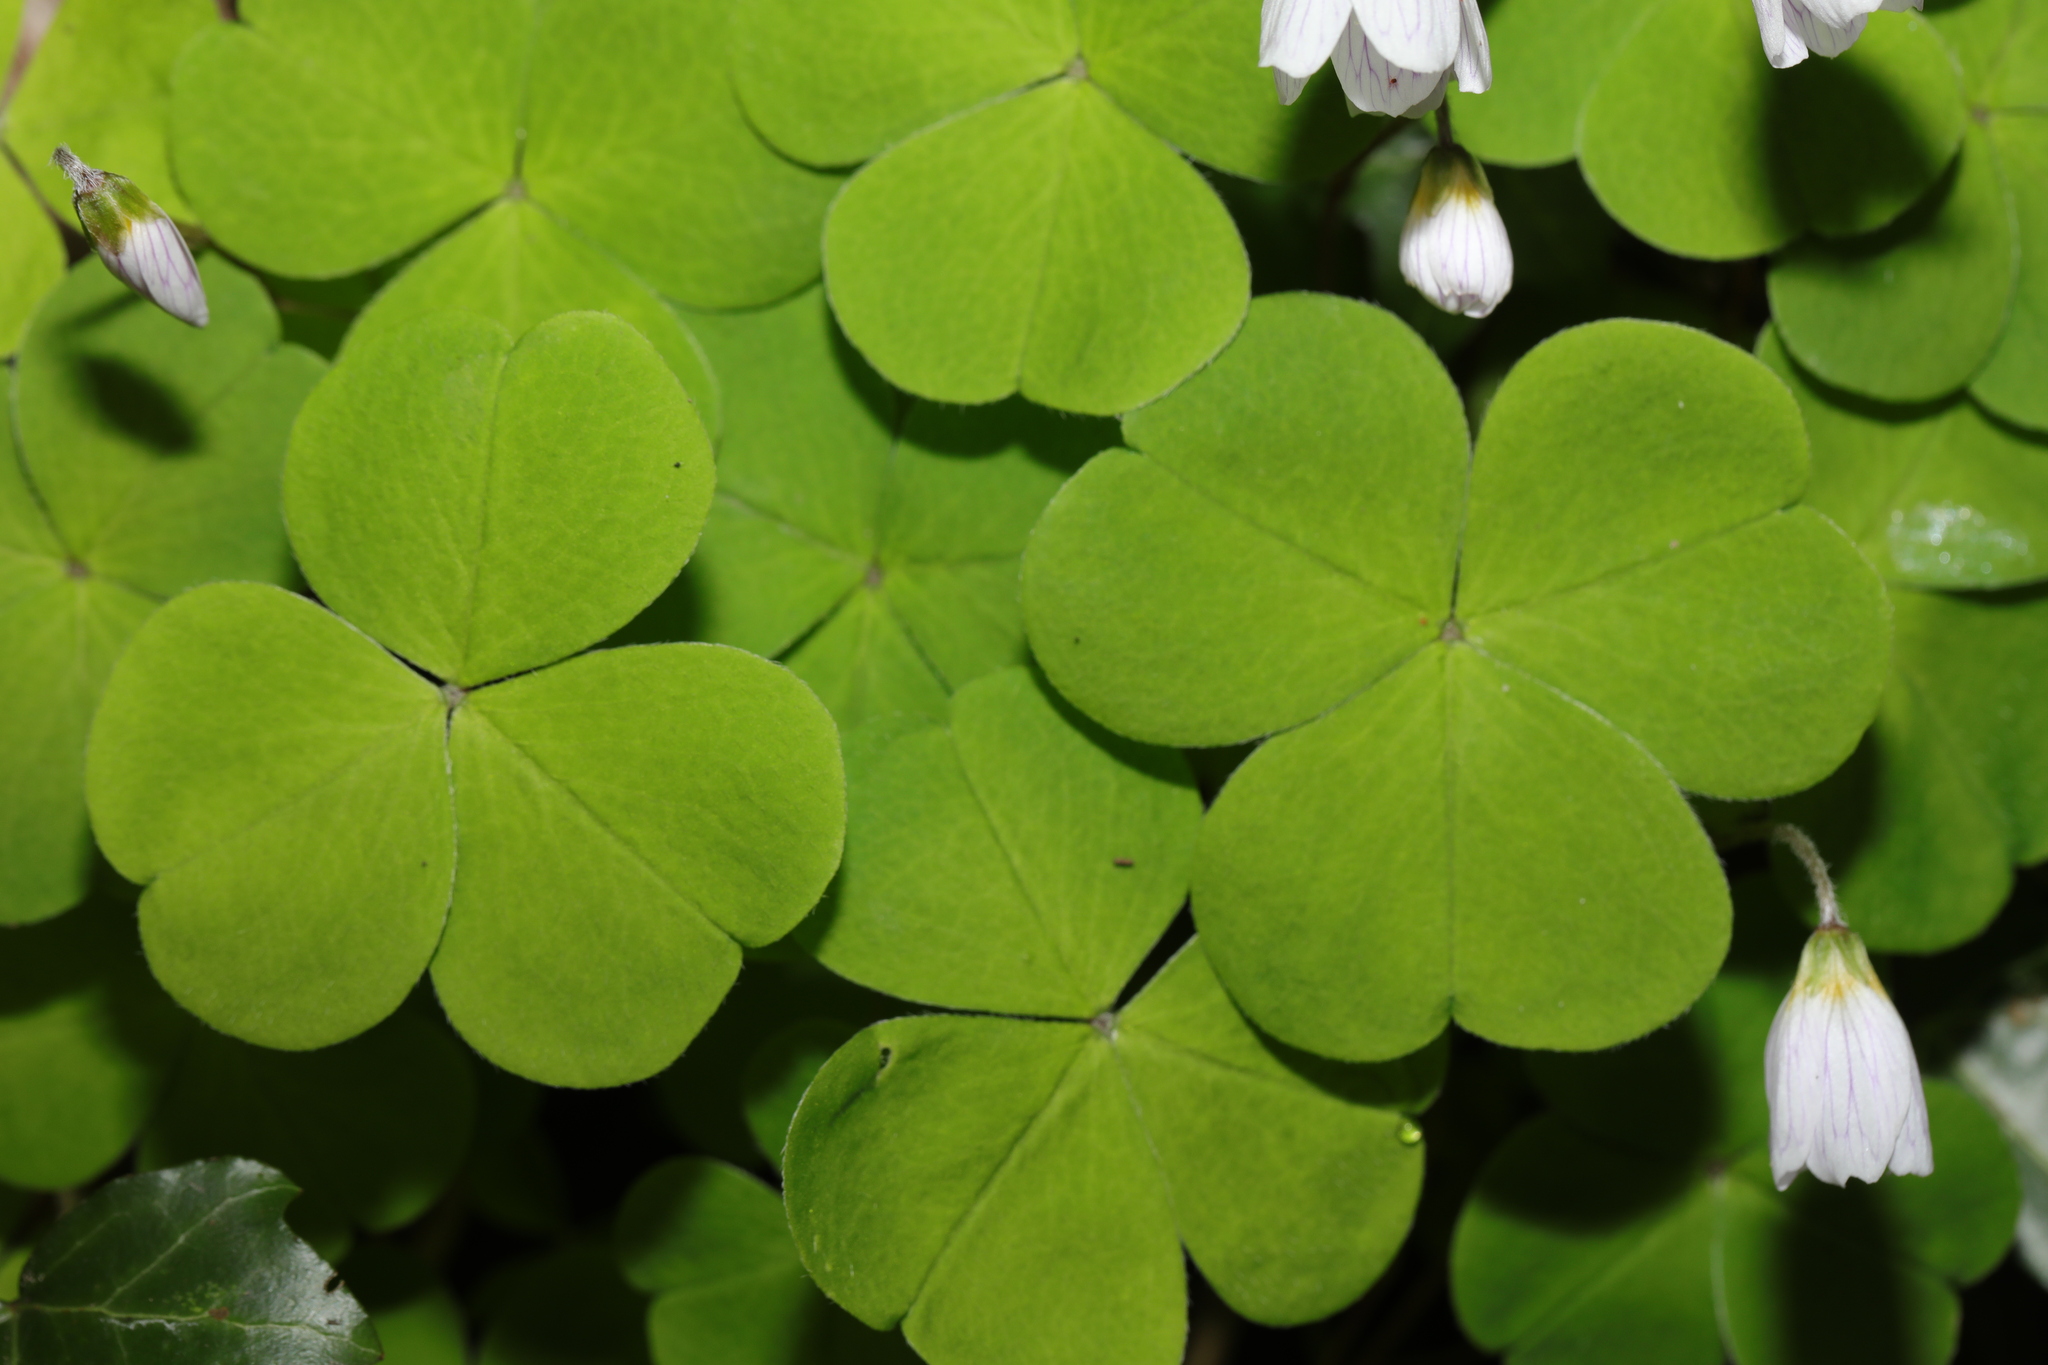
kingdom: Plantae
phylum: Tracheophyta
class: Magnoliopsida
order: Oxalidales
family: Oxalidaceae
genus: Oxalis
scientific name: Oxalis acetosella
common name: Wood-sorrel
